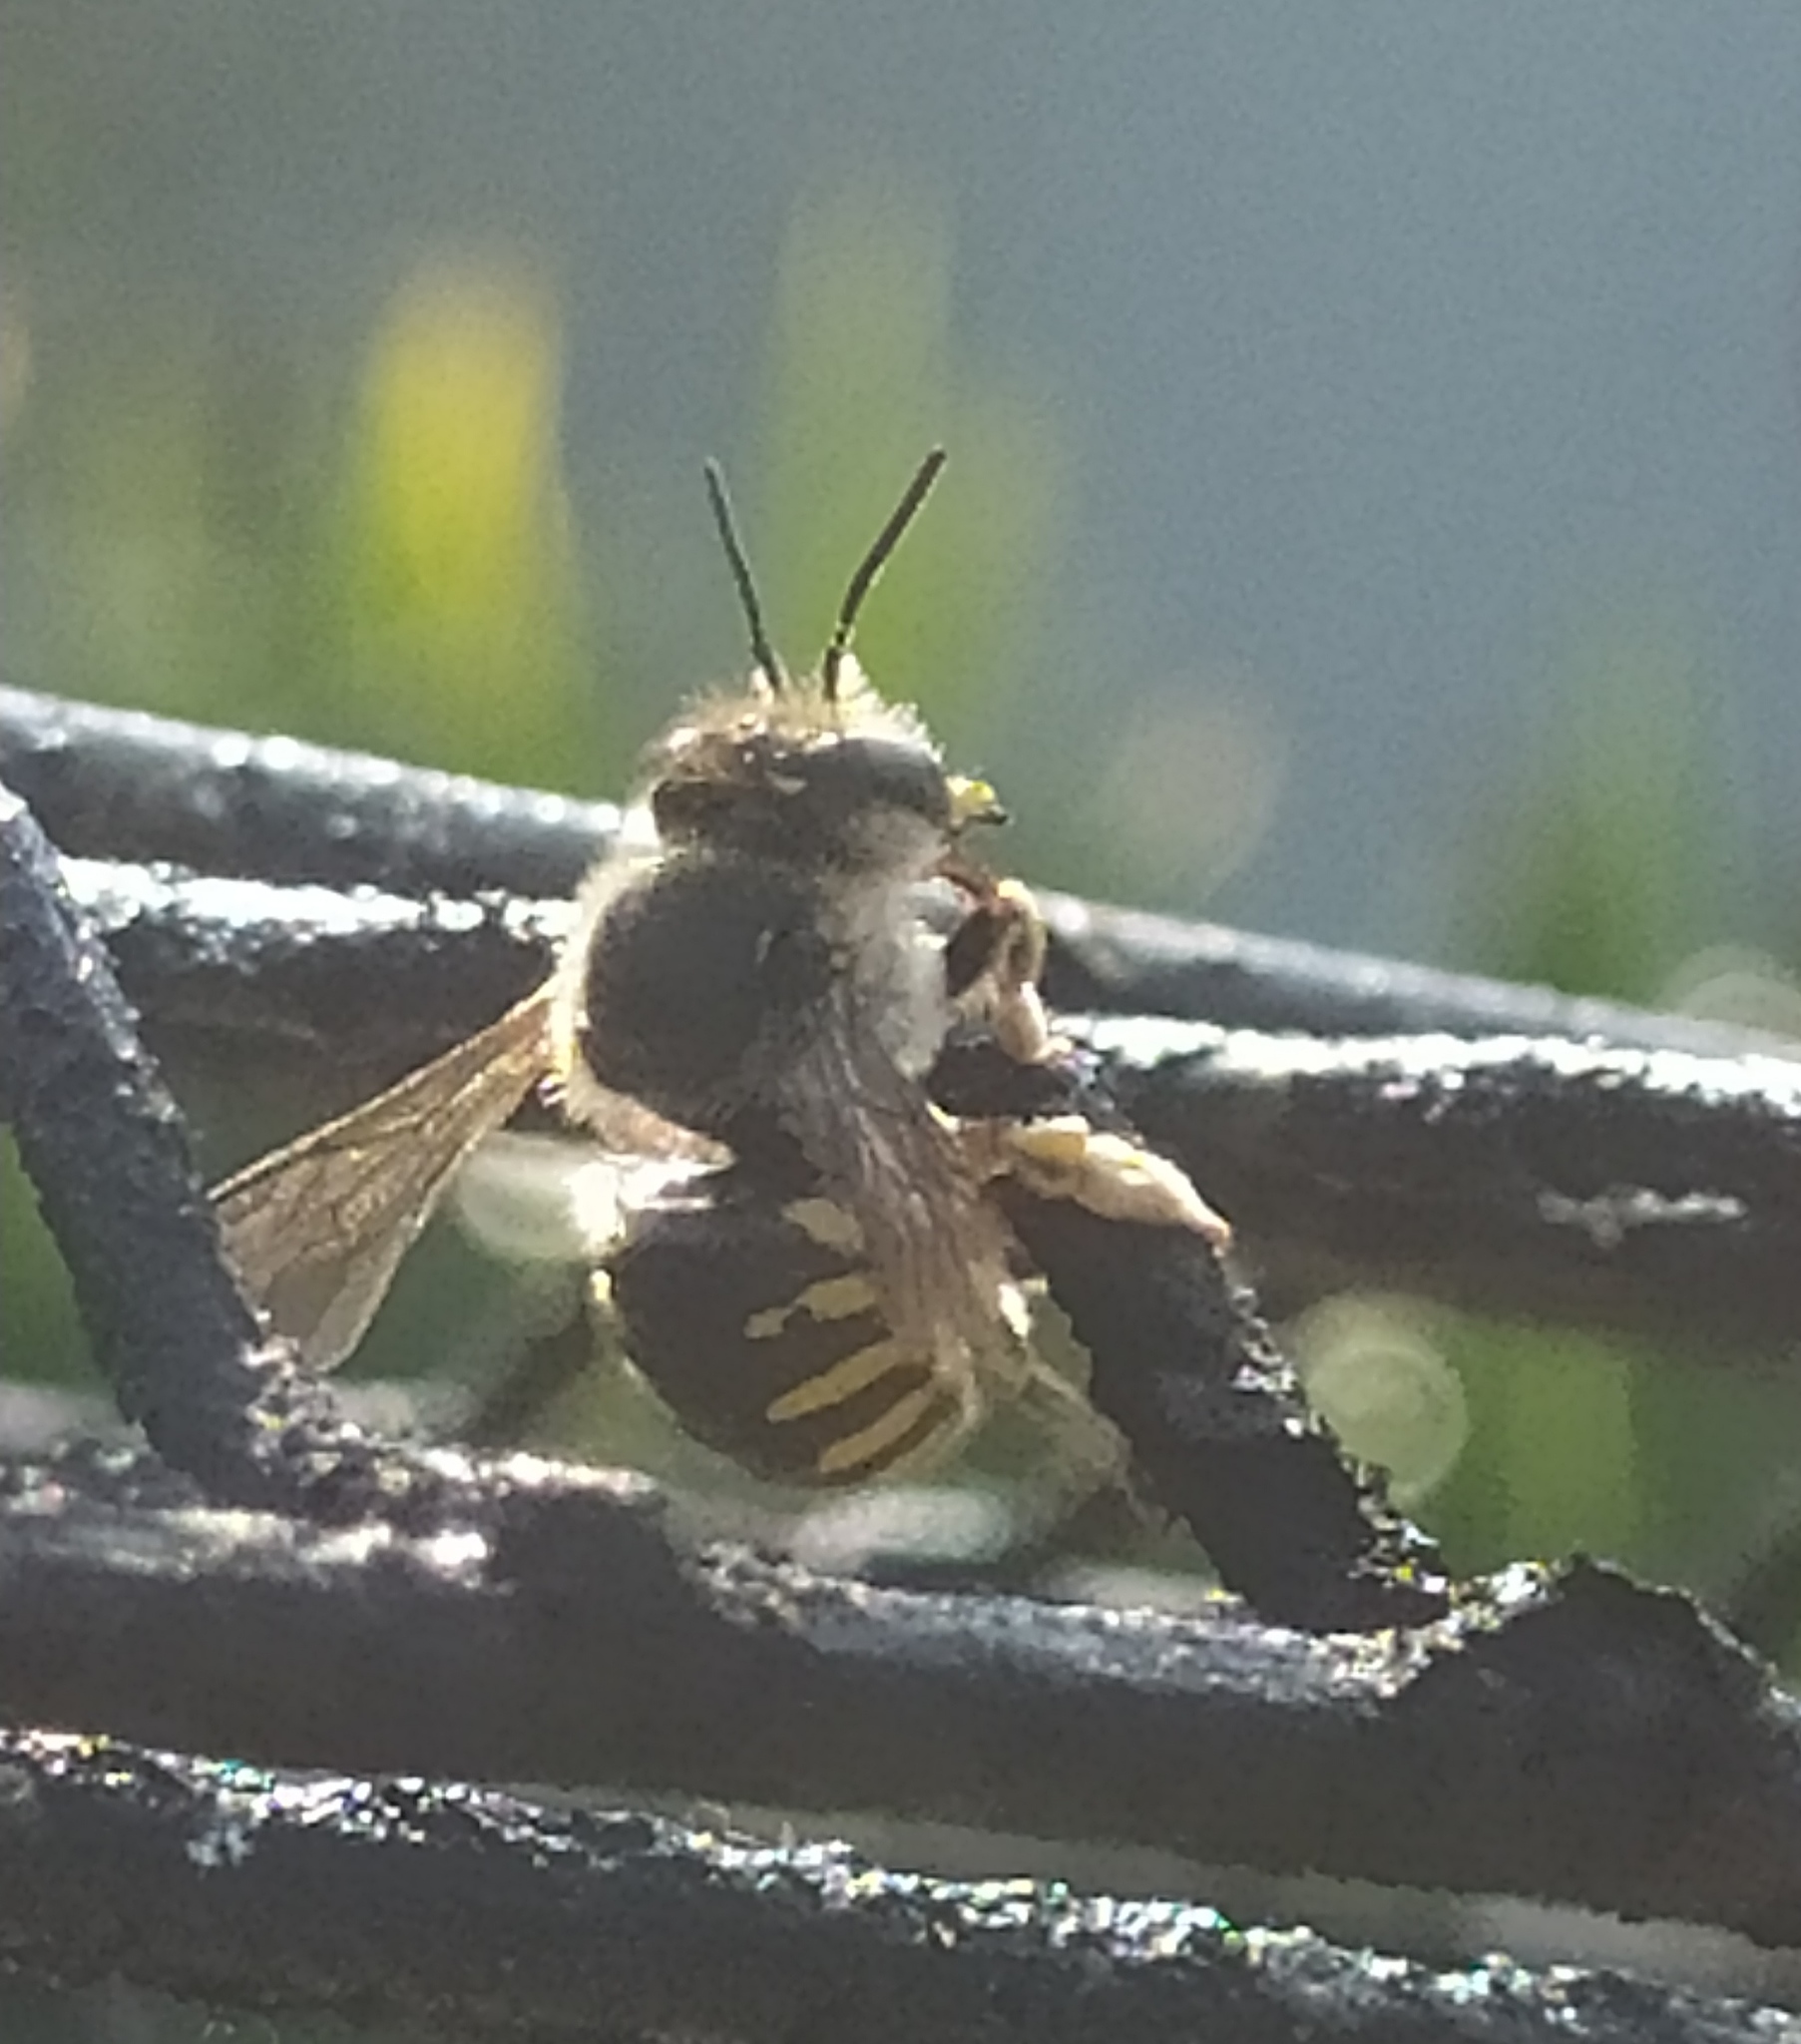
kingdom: Animalia
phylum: Arthropoda
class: Insecta
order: Hymenoptera
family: Megachilidae
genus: Anthidium
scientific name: Anthidium manicatum
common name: Wool carder bee
